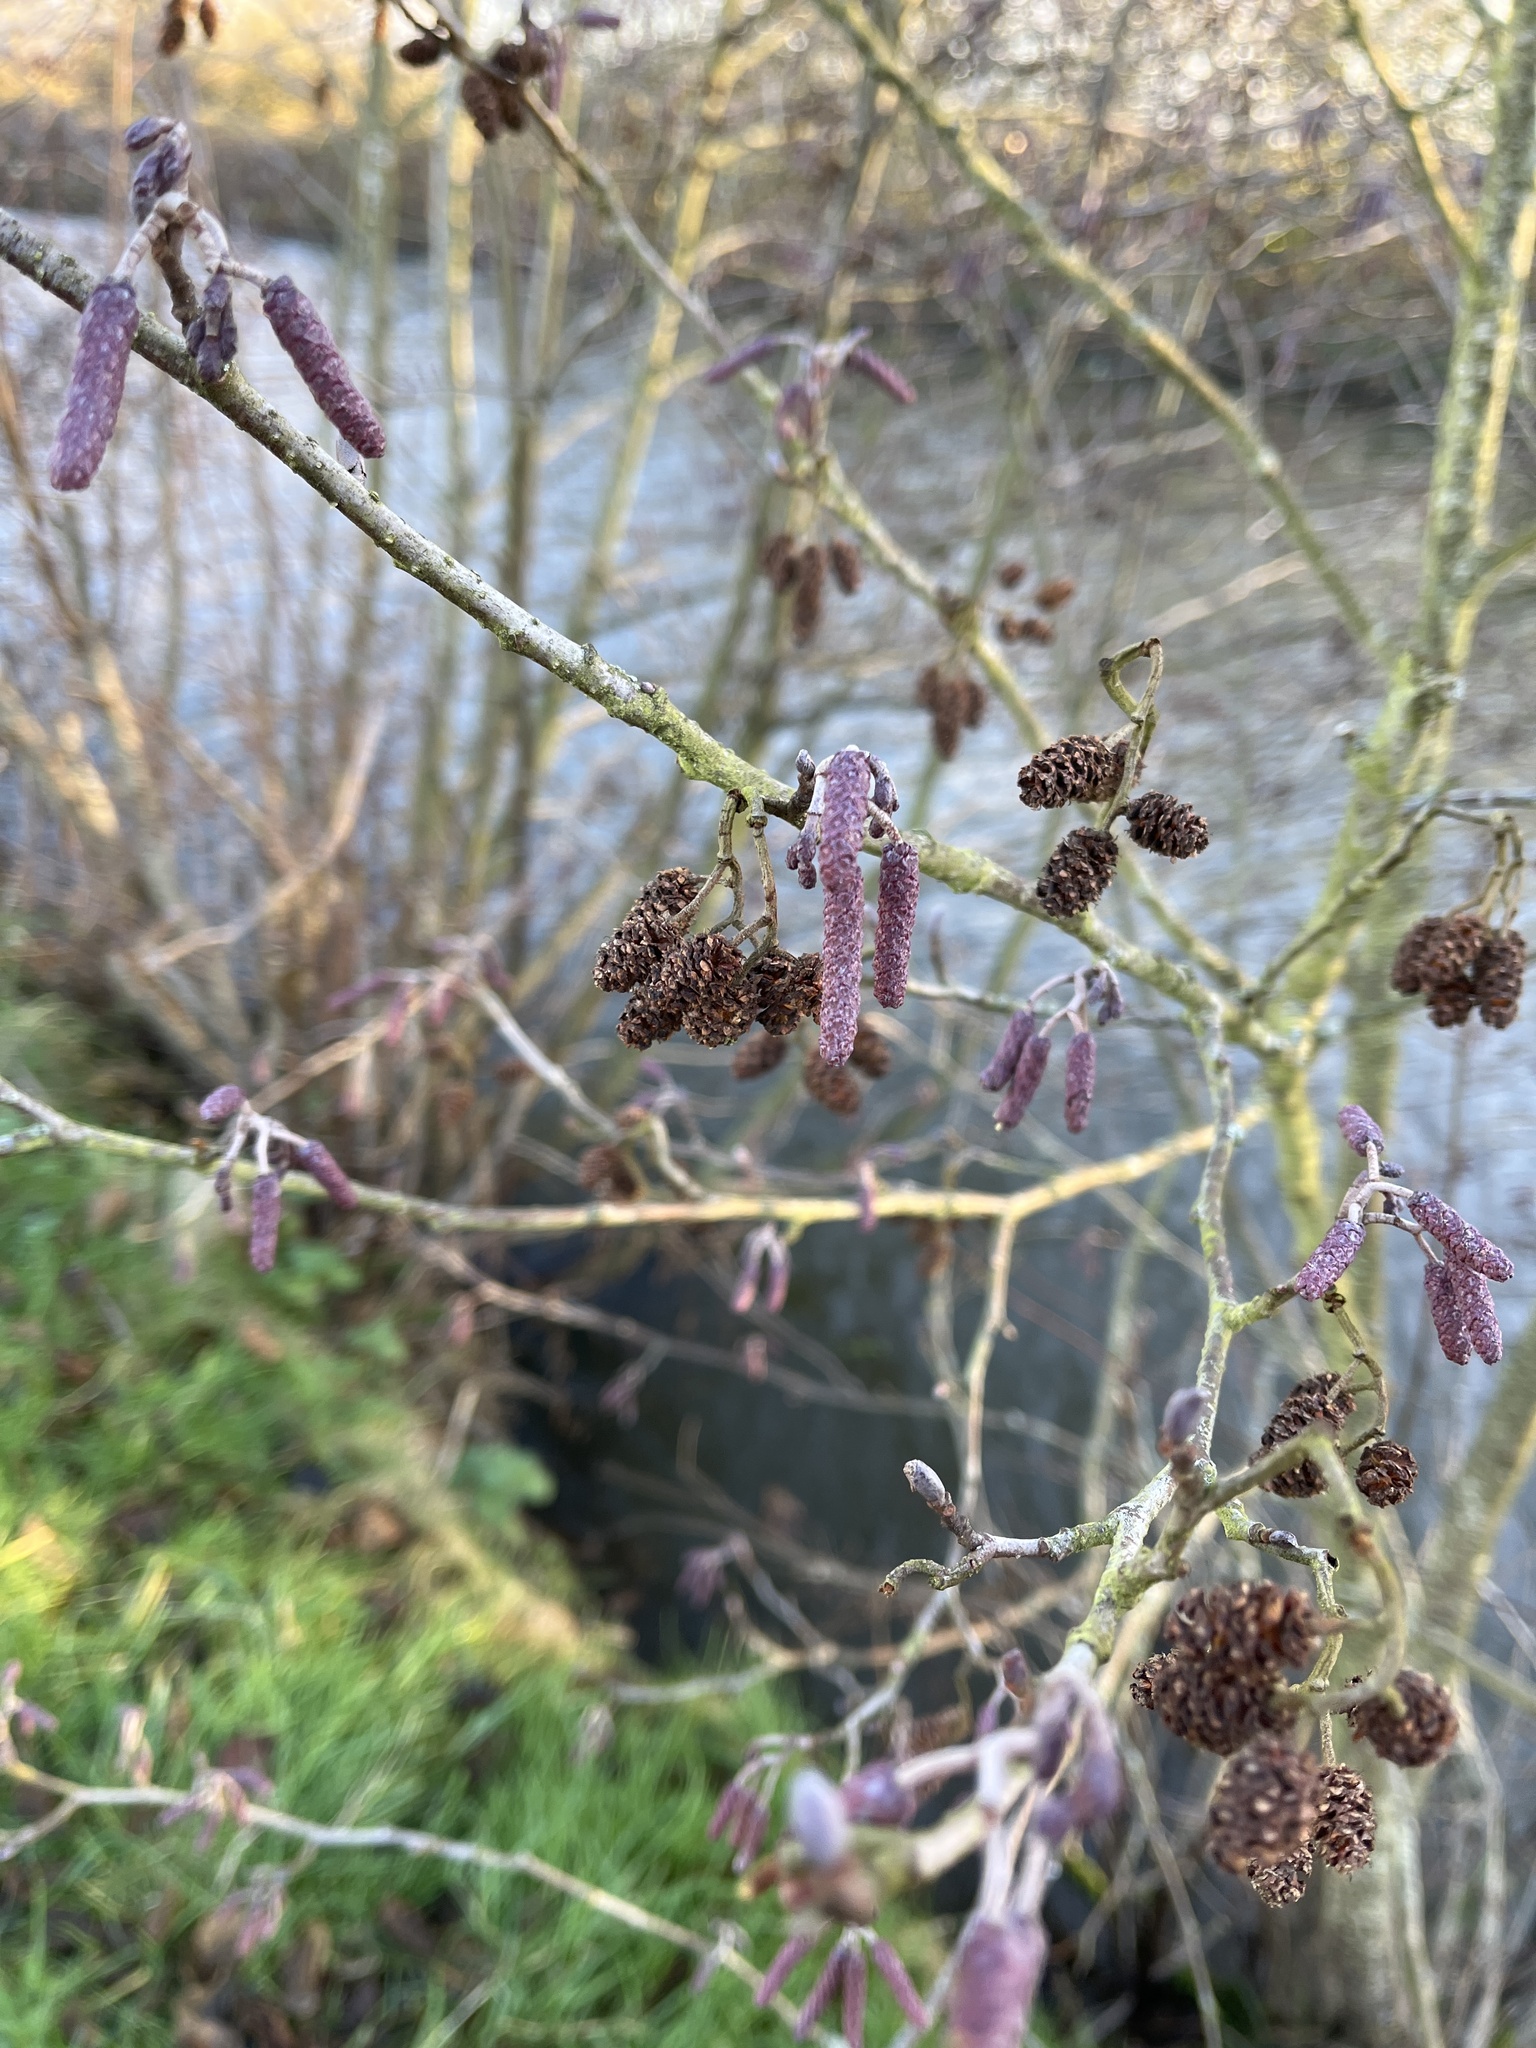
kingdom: Plantae
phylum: Tracheophyta
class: Magnoliopsida
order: Fagales
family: Betulaceae
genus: Alnus
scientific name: Alnus glutinosa
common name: Black alder
